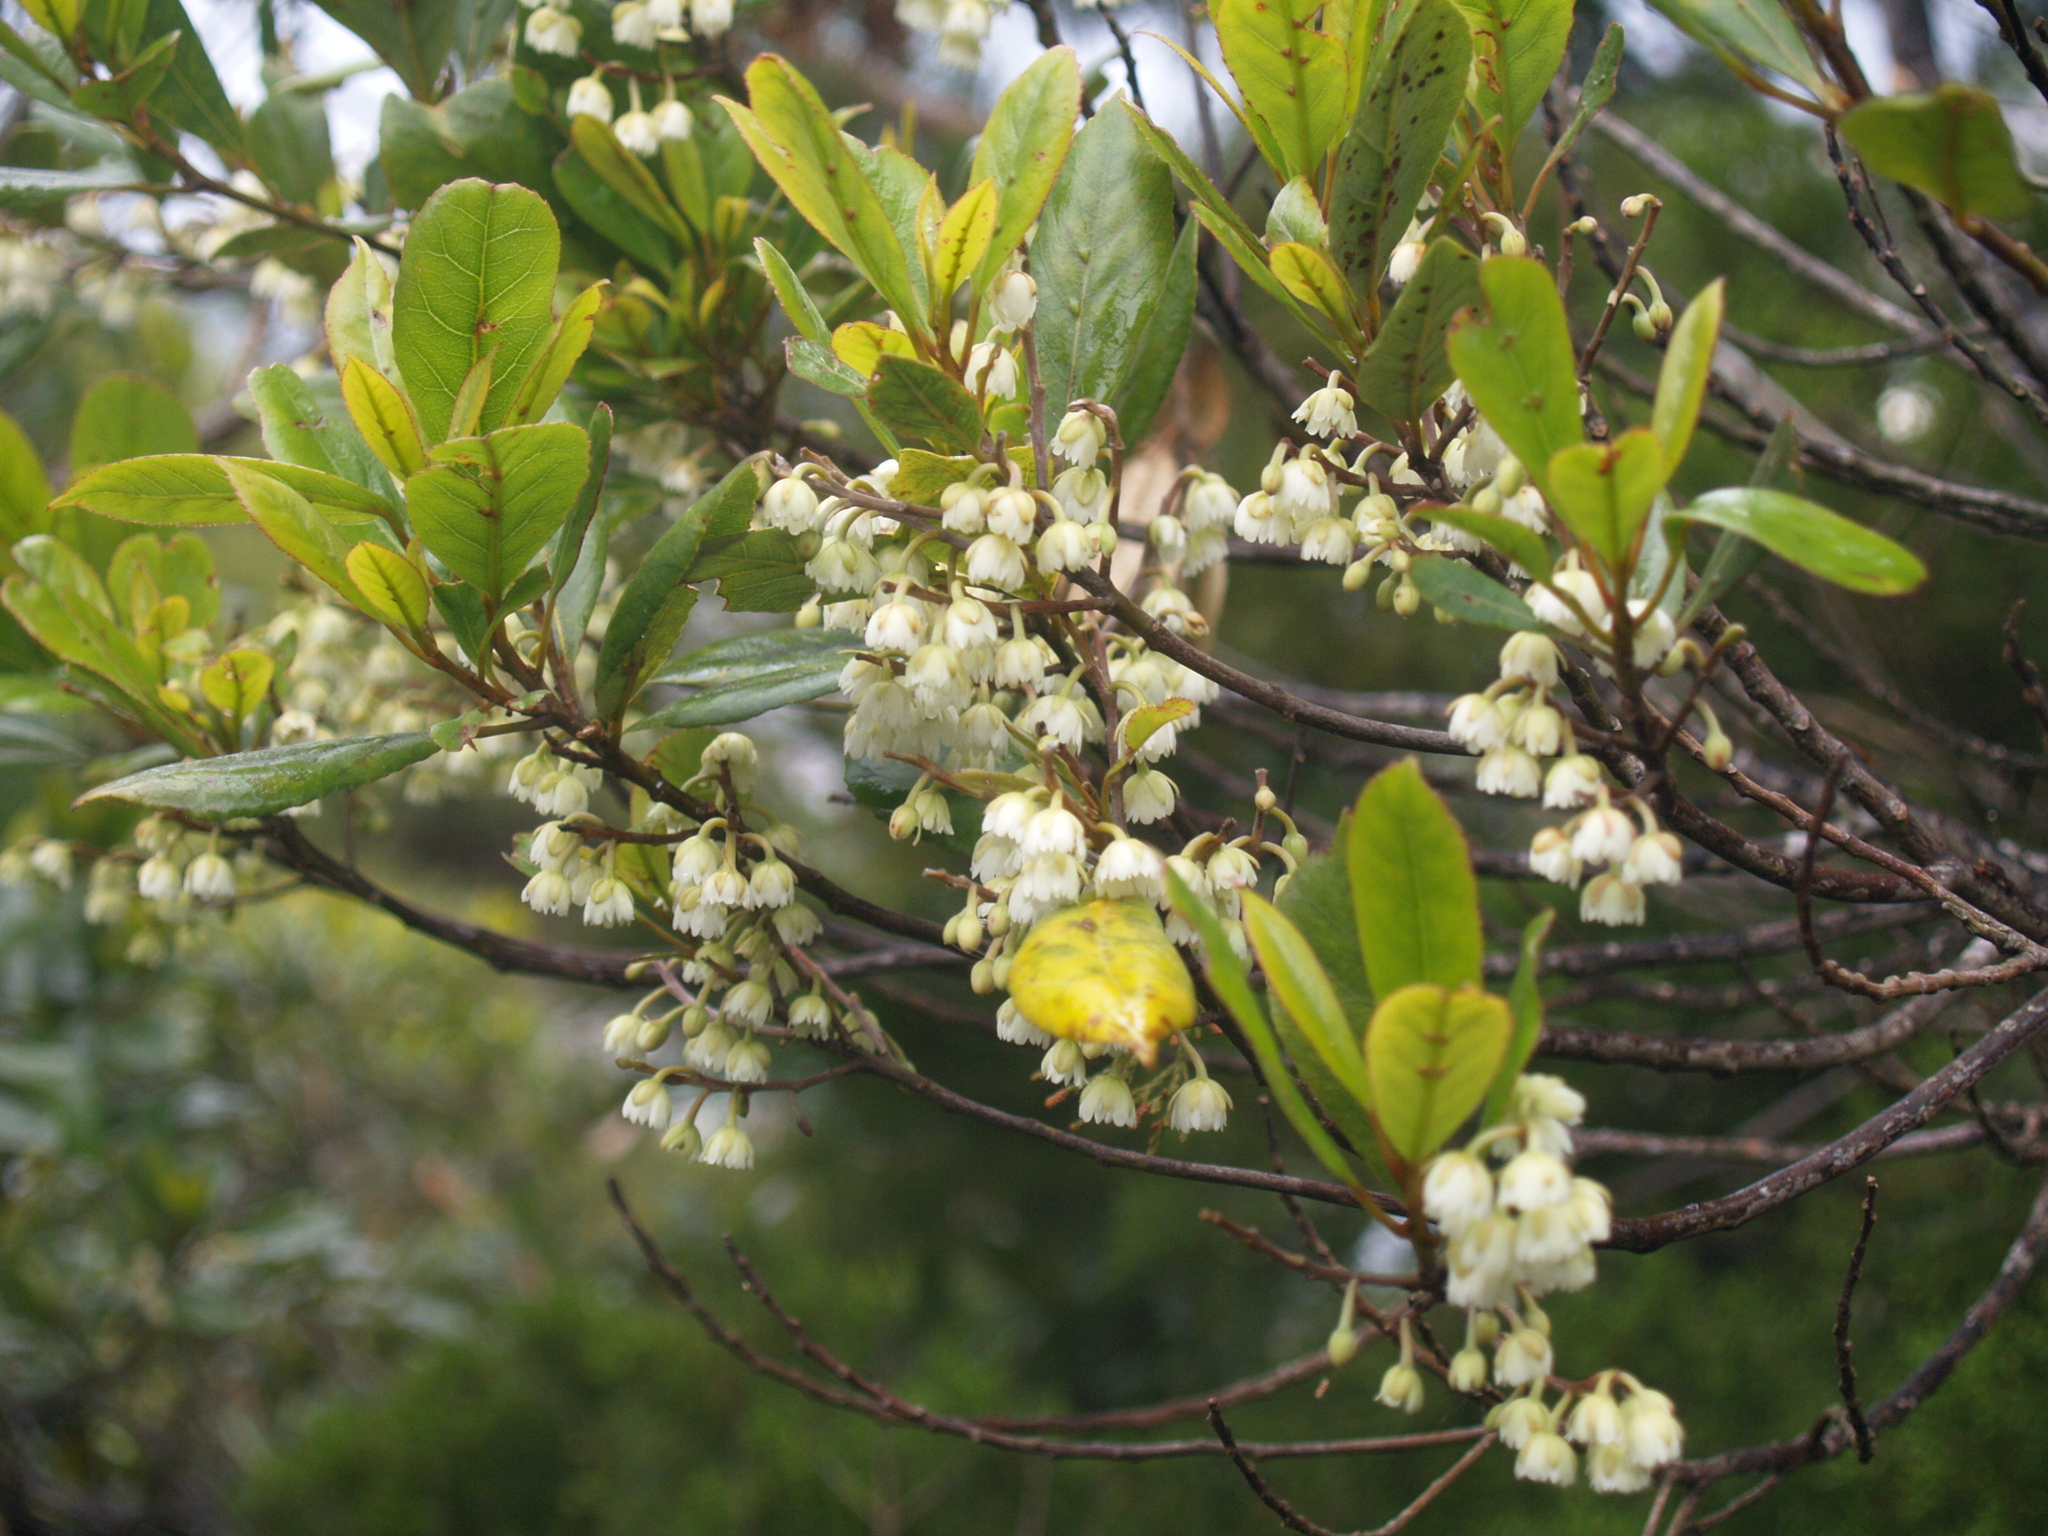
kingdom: Plantae
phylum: Tracheophyta
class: Magnoliopsida
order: Oxalidales
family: Elaeocarpaceae
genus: Elaeocarpus
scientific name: Elaeocarpus dentatus
